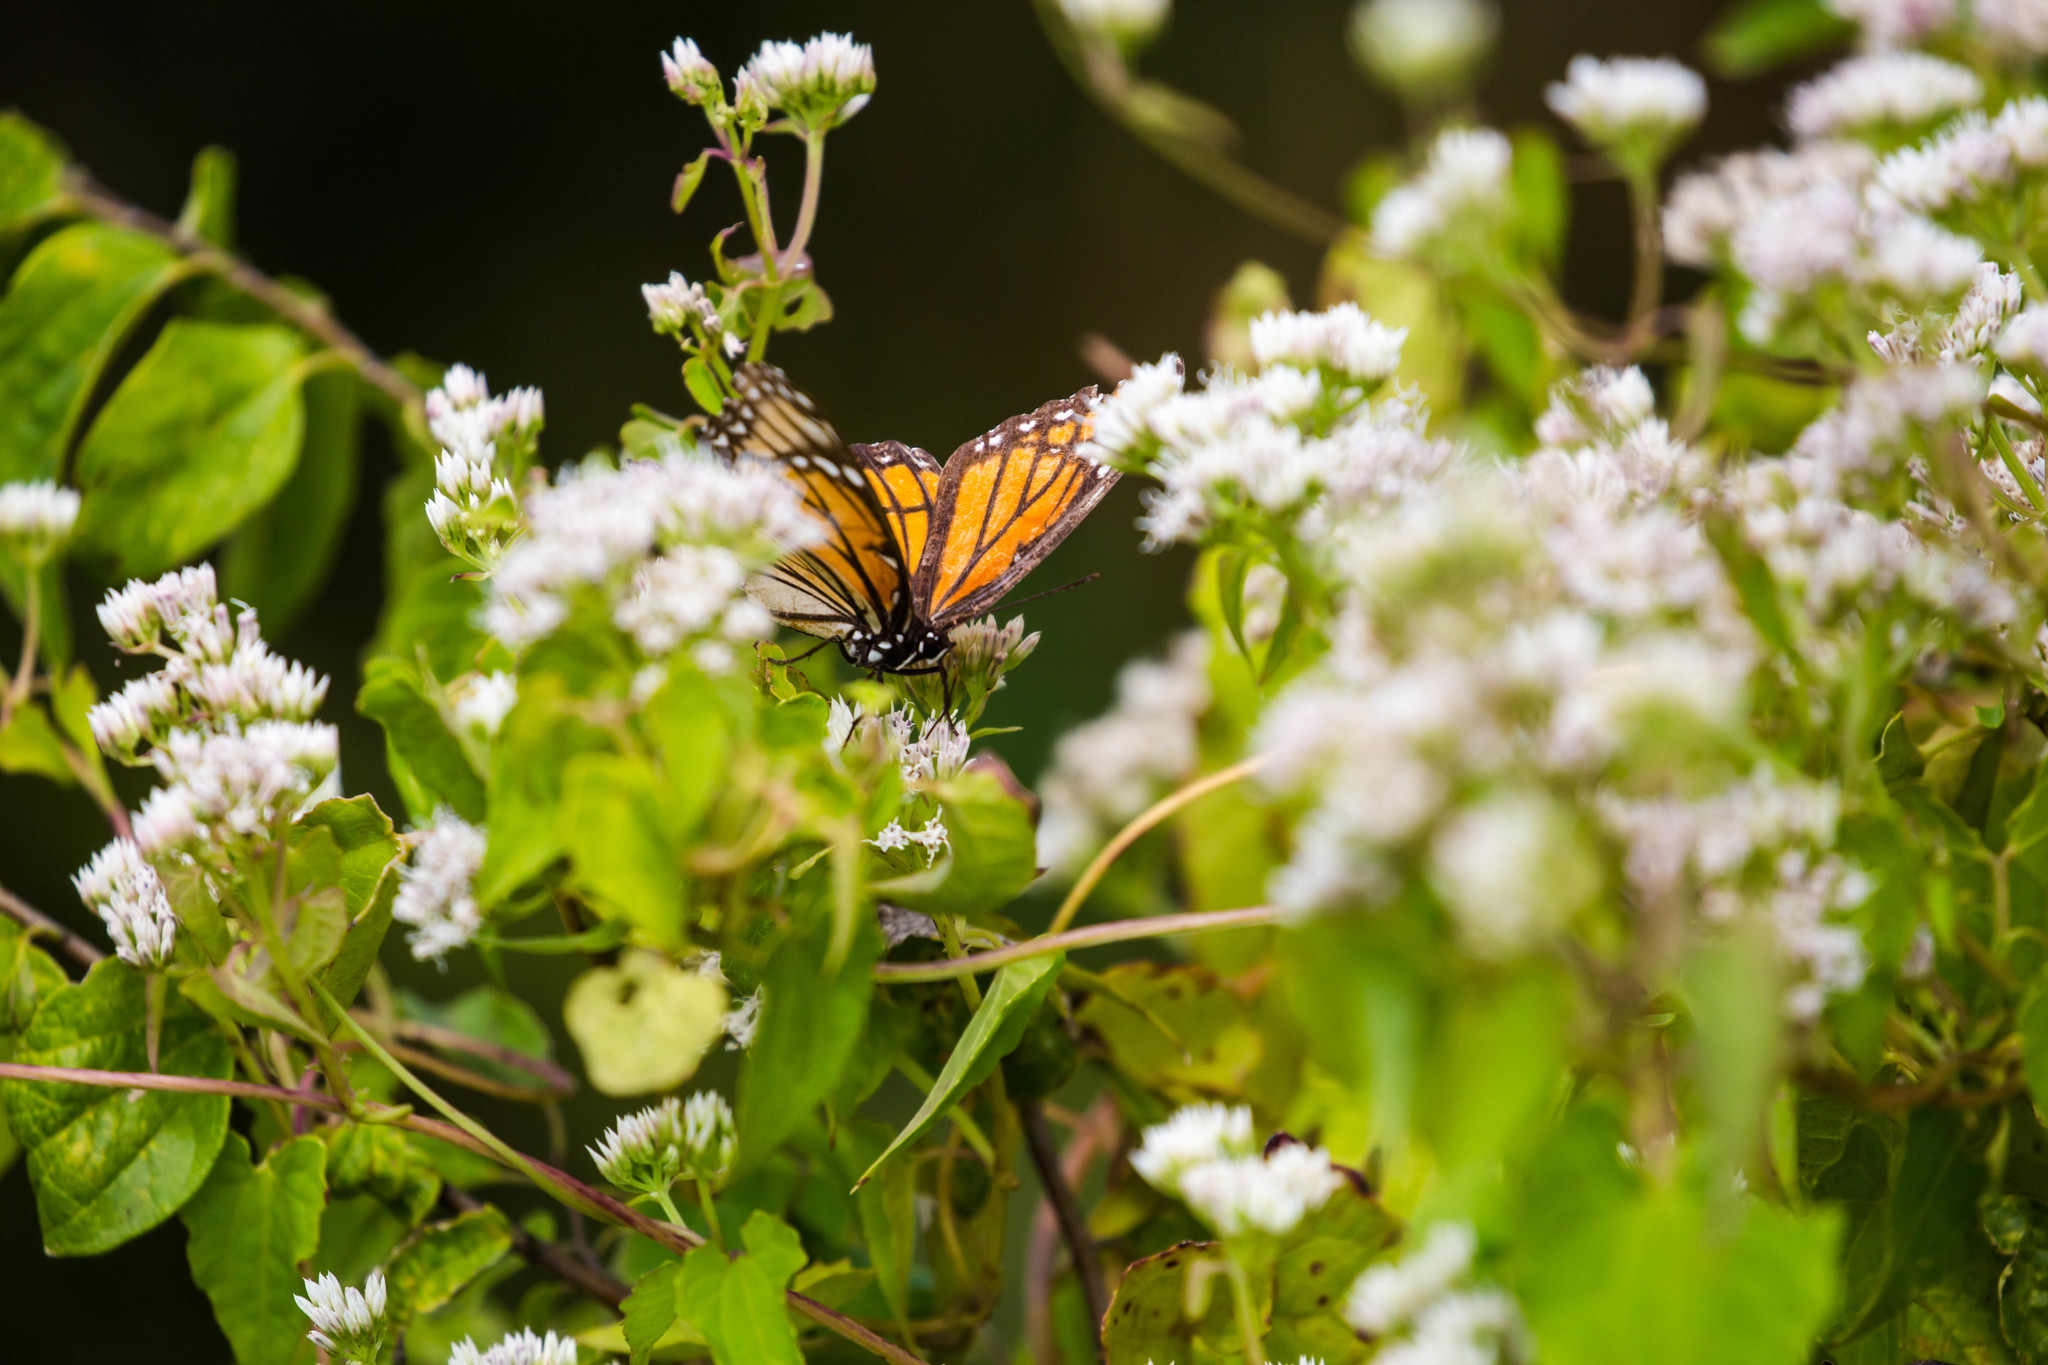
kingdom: Animalia
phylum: Arthropoda
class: Insecta
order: Lepidoptera
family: Nymphalidae
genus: Limenitis
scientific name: Limenitis archippus
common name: Viceroy
